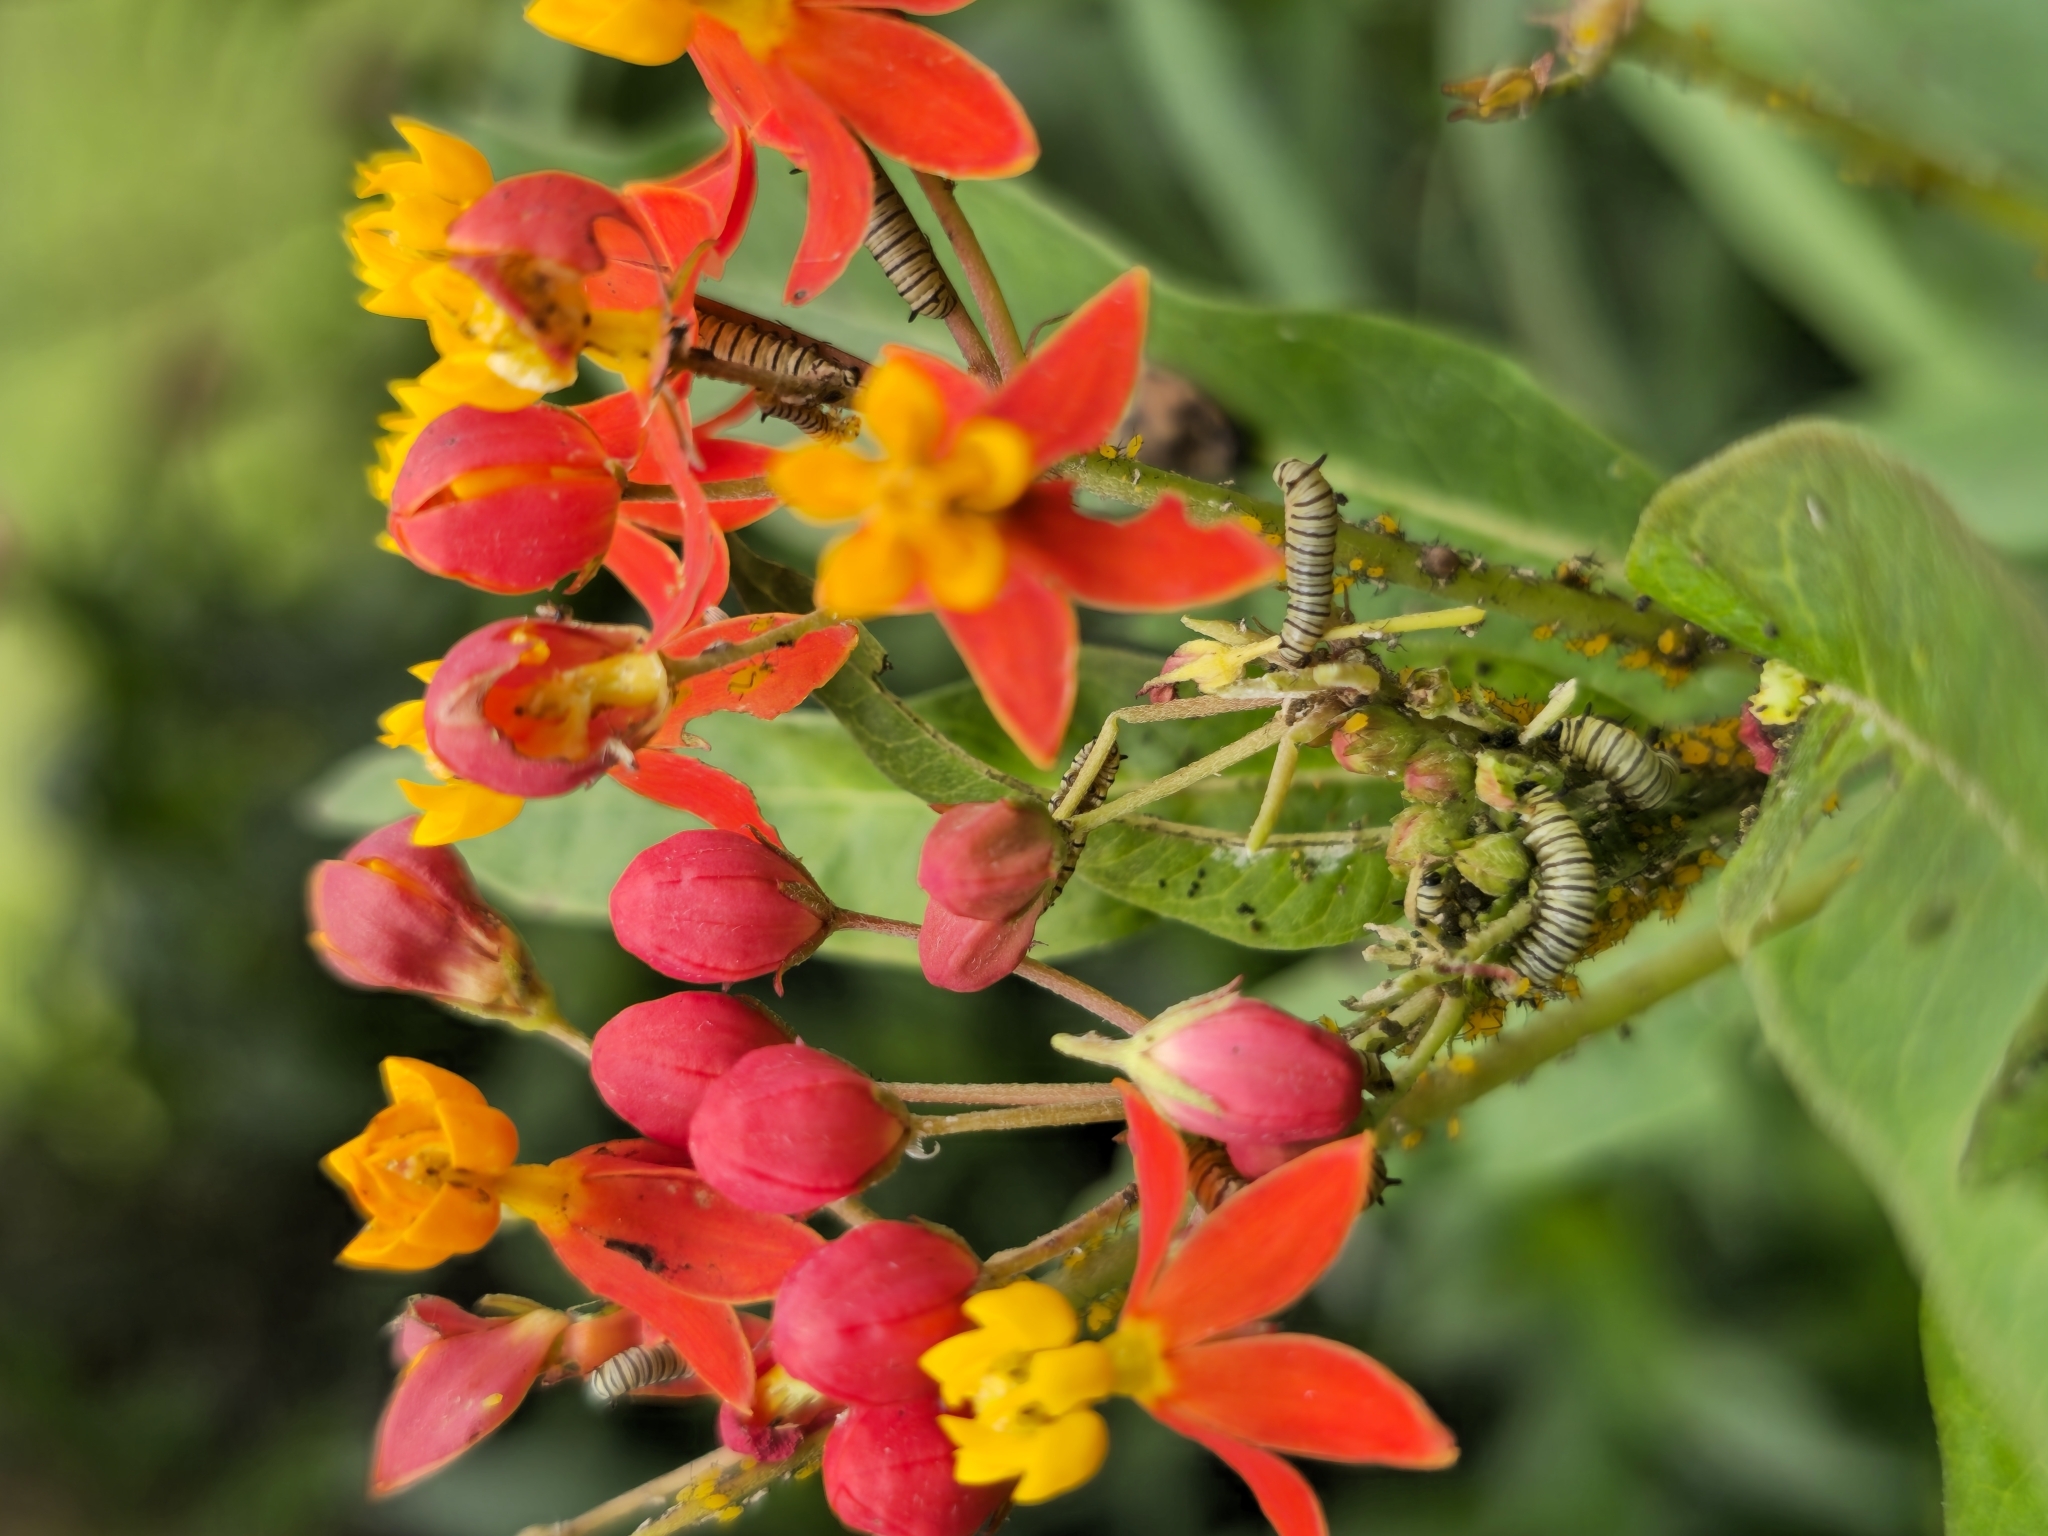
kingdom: Animalia
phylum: Arthropoda
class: Insecta
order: Lepidoptera
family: Nymphalidae
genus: Danaus
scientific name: Danaus erippus
